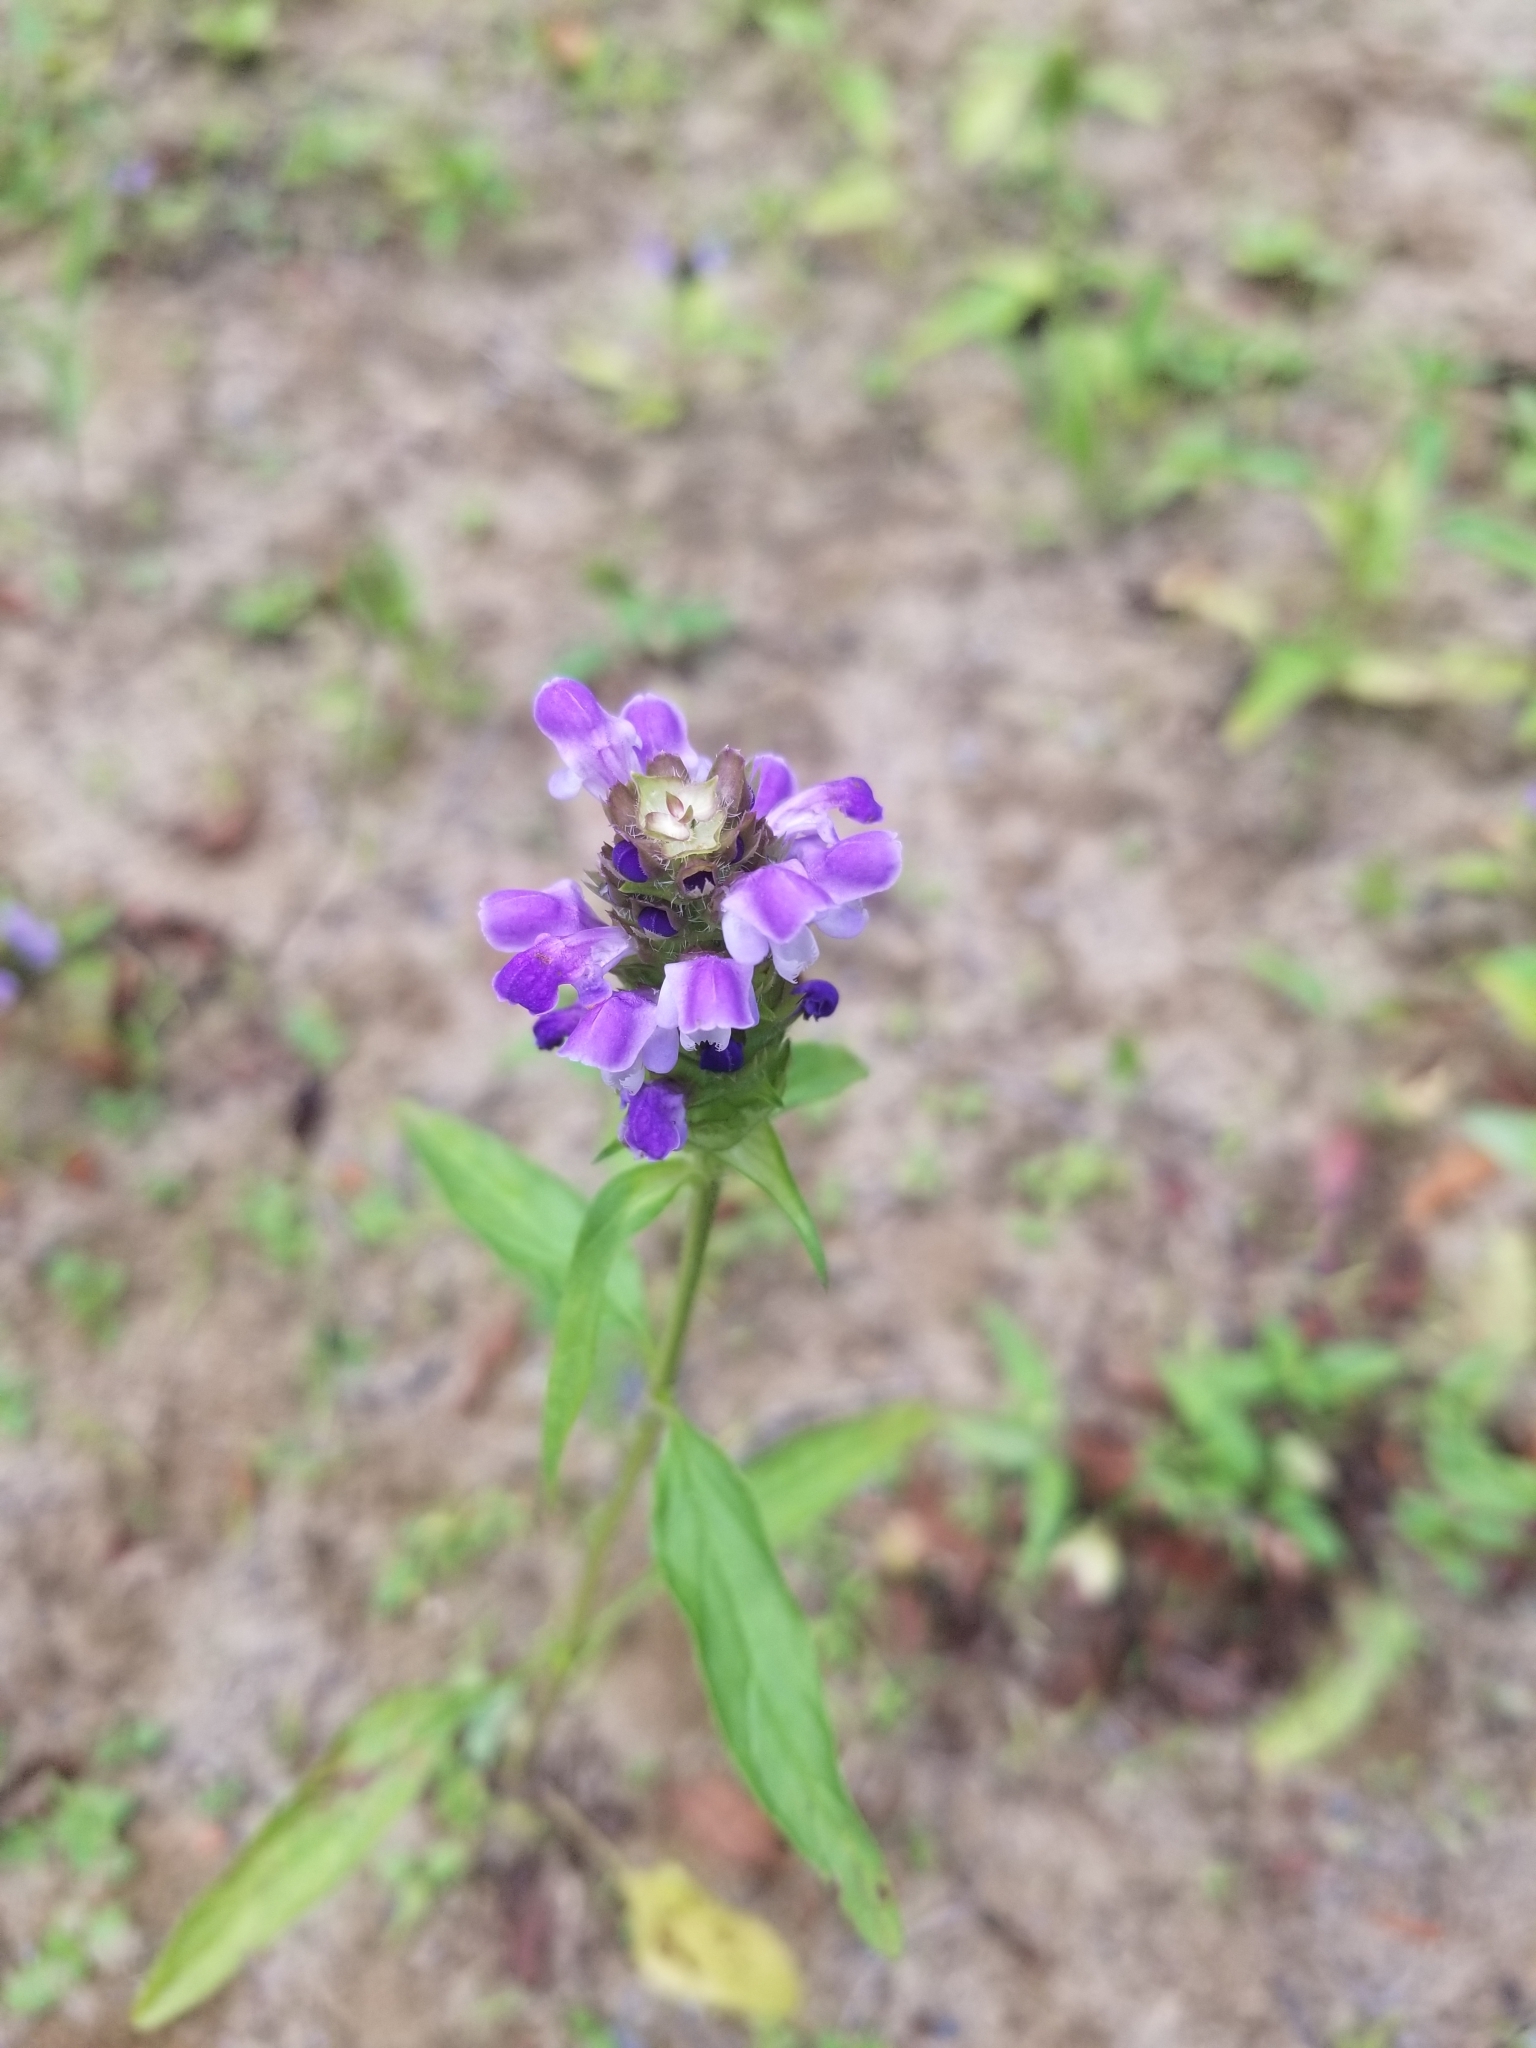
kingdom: Plantae
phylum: Tracheophyta
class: Magnoliopsida
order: Lamiales
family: Lamiaceae
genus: Prunella
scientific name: Prunella vulgaris
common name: Heal-all
